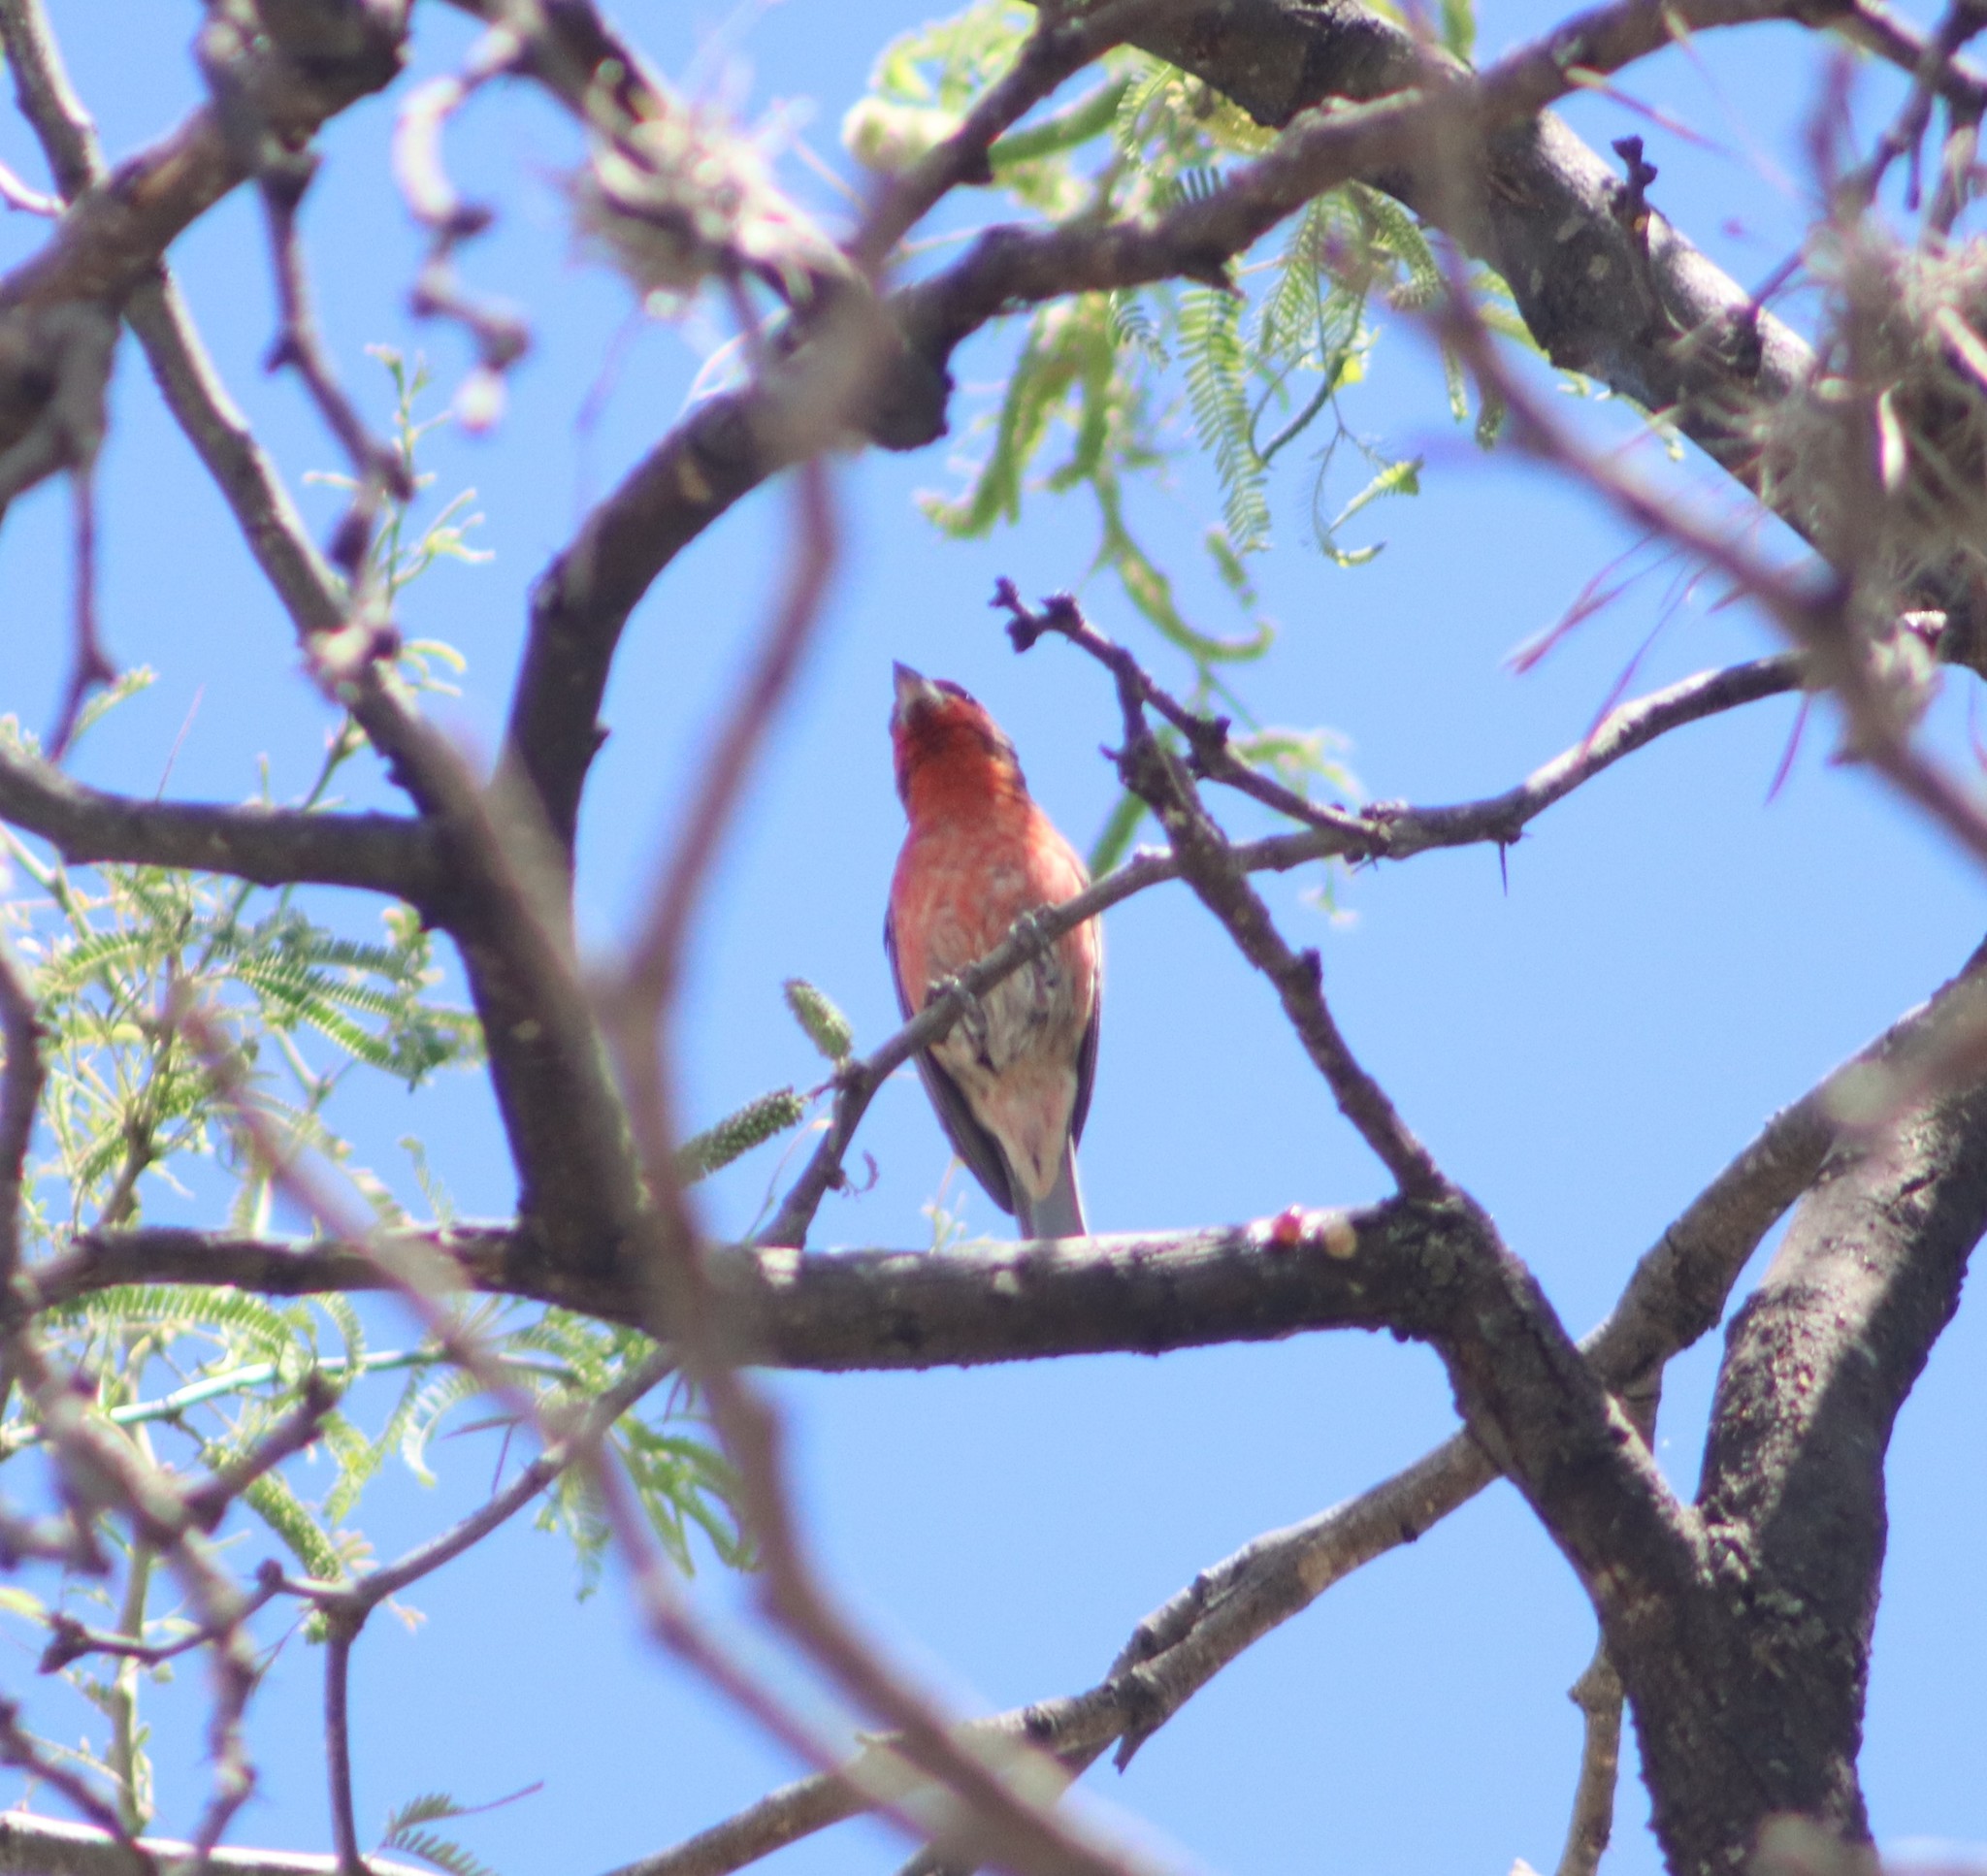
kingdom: Animalia
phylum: Chordata
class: Aves
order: Passeriformes
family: Fringillidae
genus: Haemorhous
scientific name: Haemorhous mexicanus
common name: House finch
